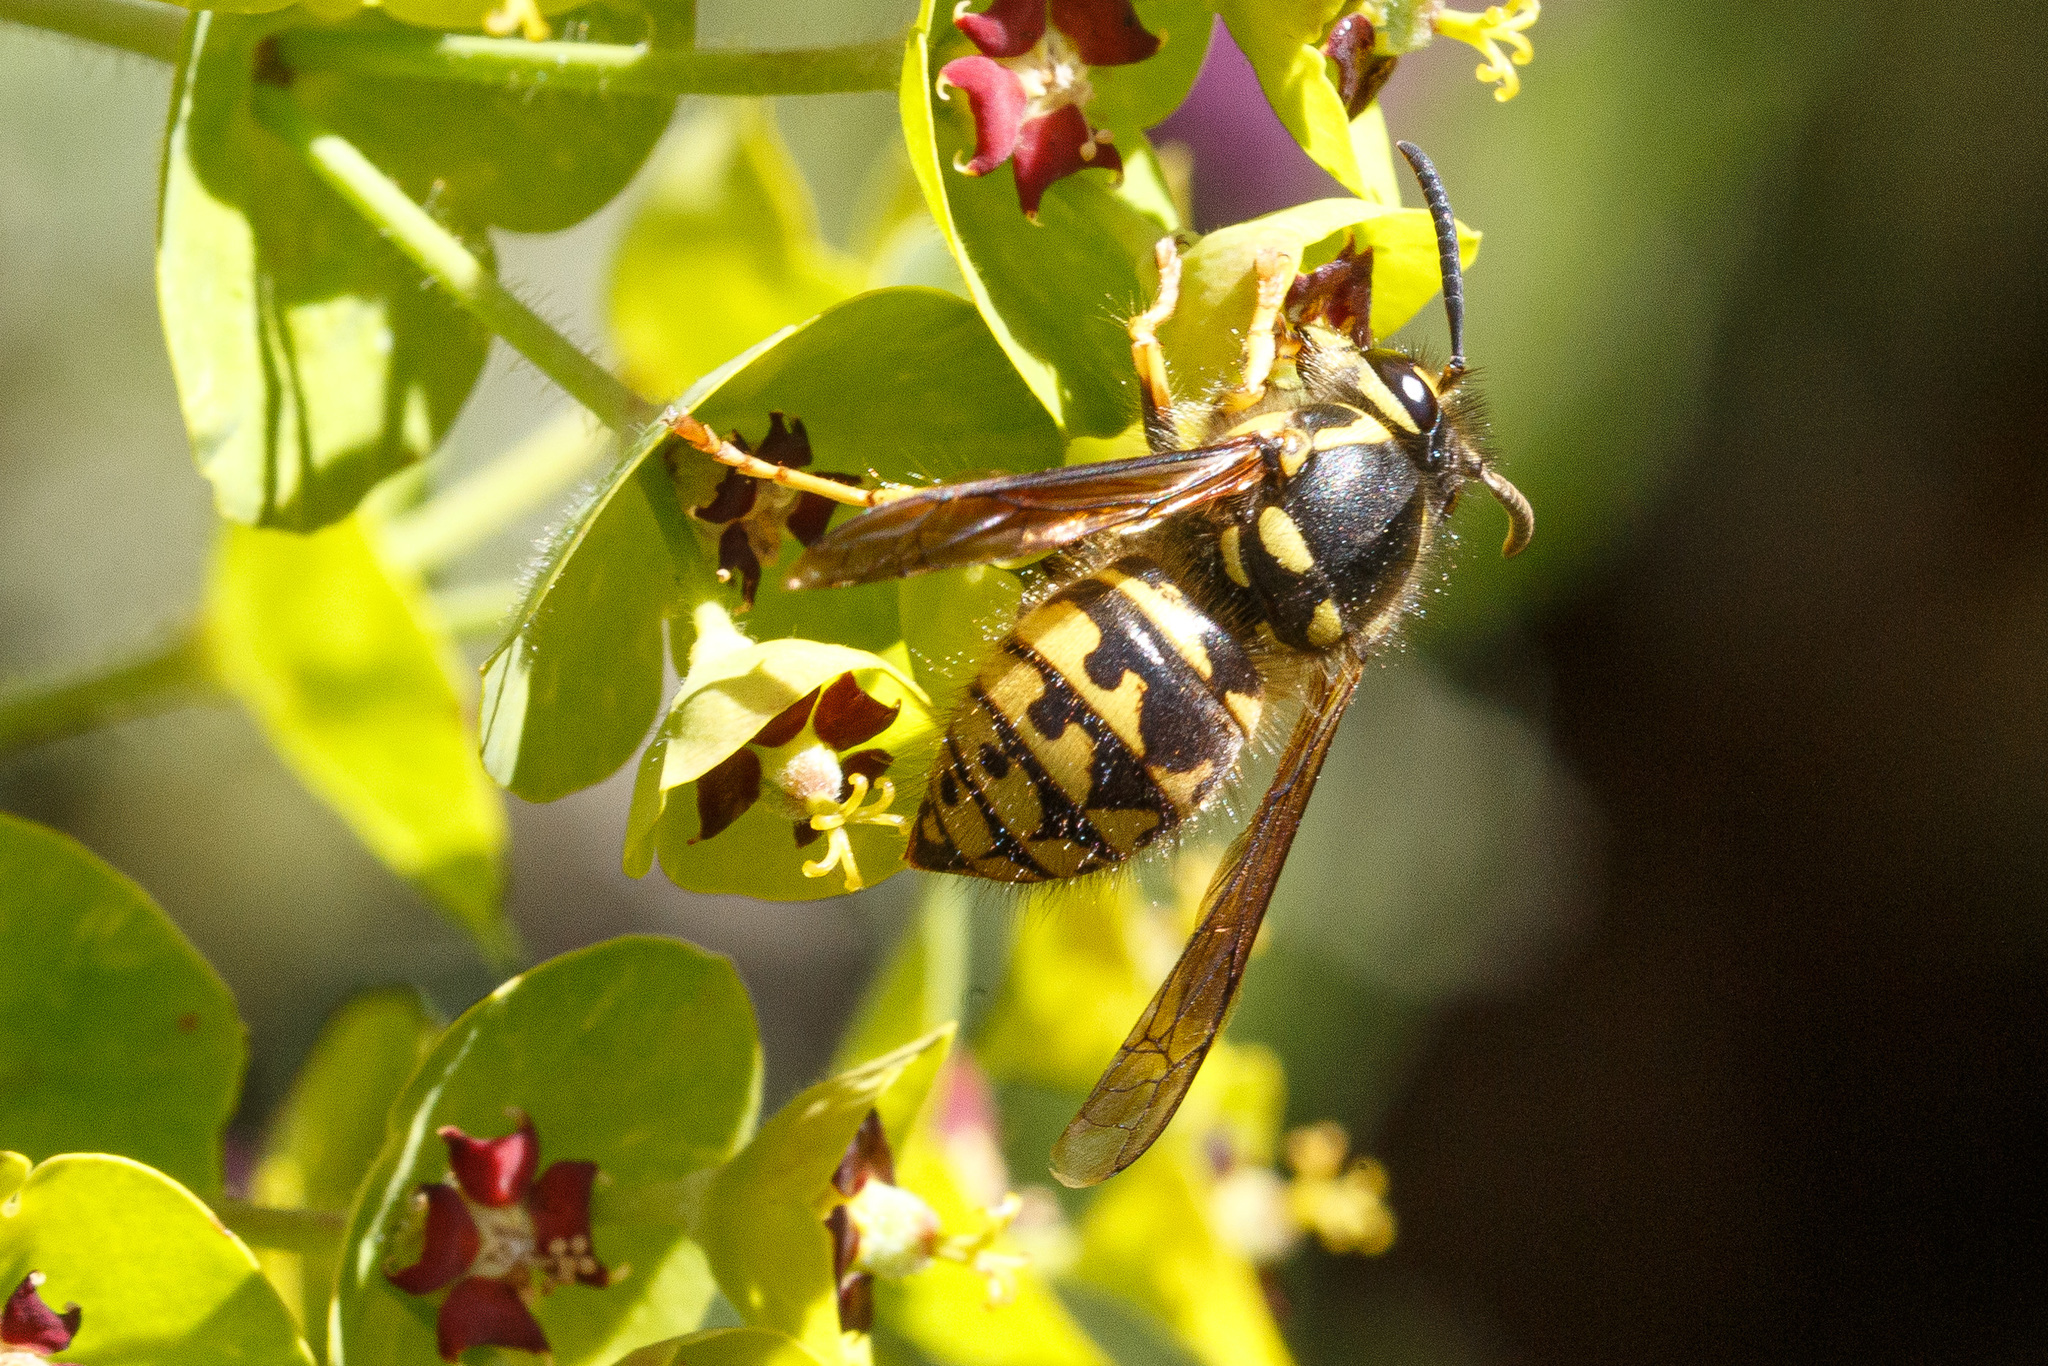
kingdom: Animalia
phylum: Arthropoda
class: Insecta
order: Hymenoptera
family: Vespidae
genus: Dolichovespula
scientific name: Dolichovespula arenaria
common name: Aerial yellowjacket
